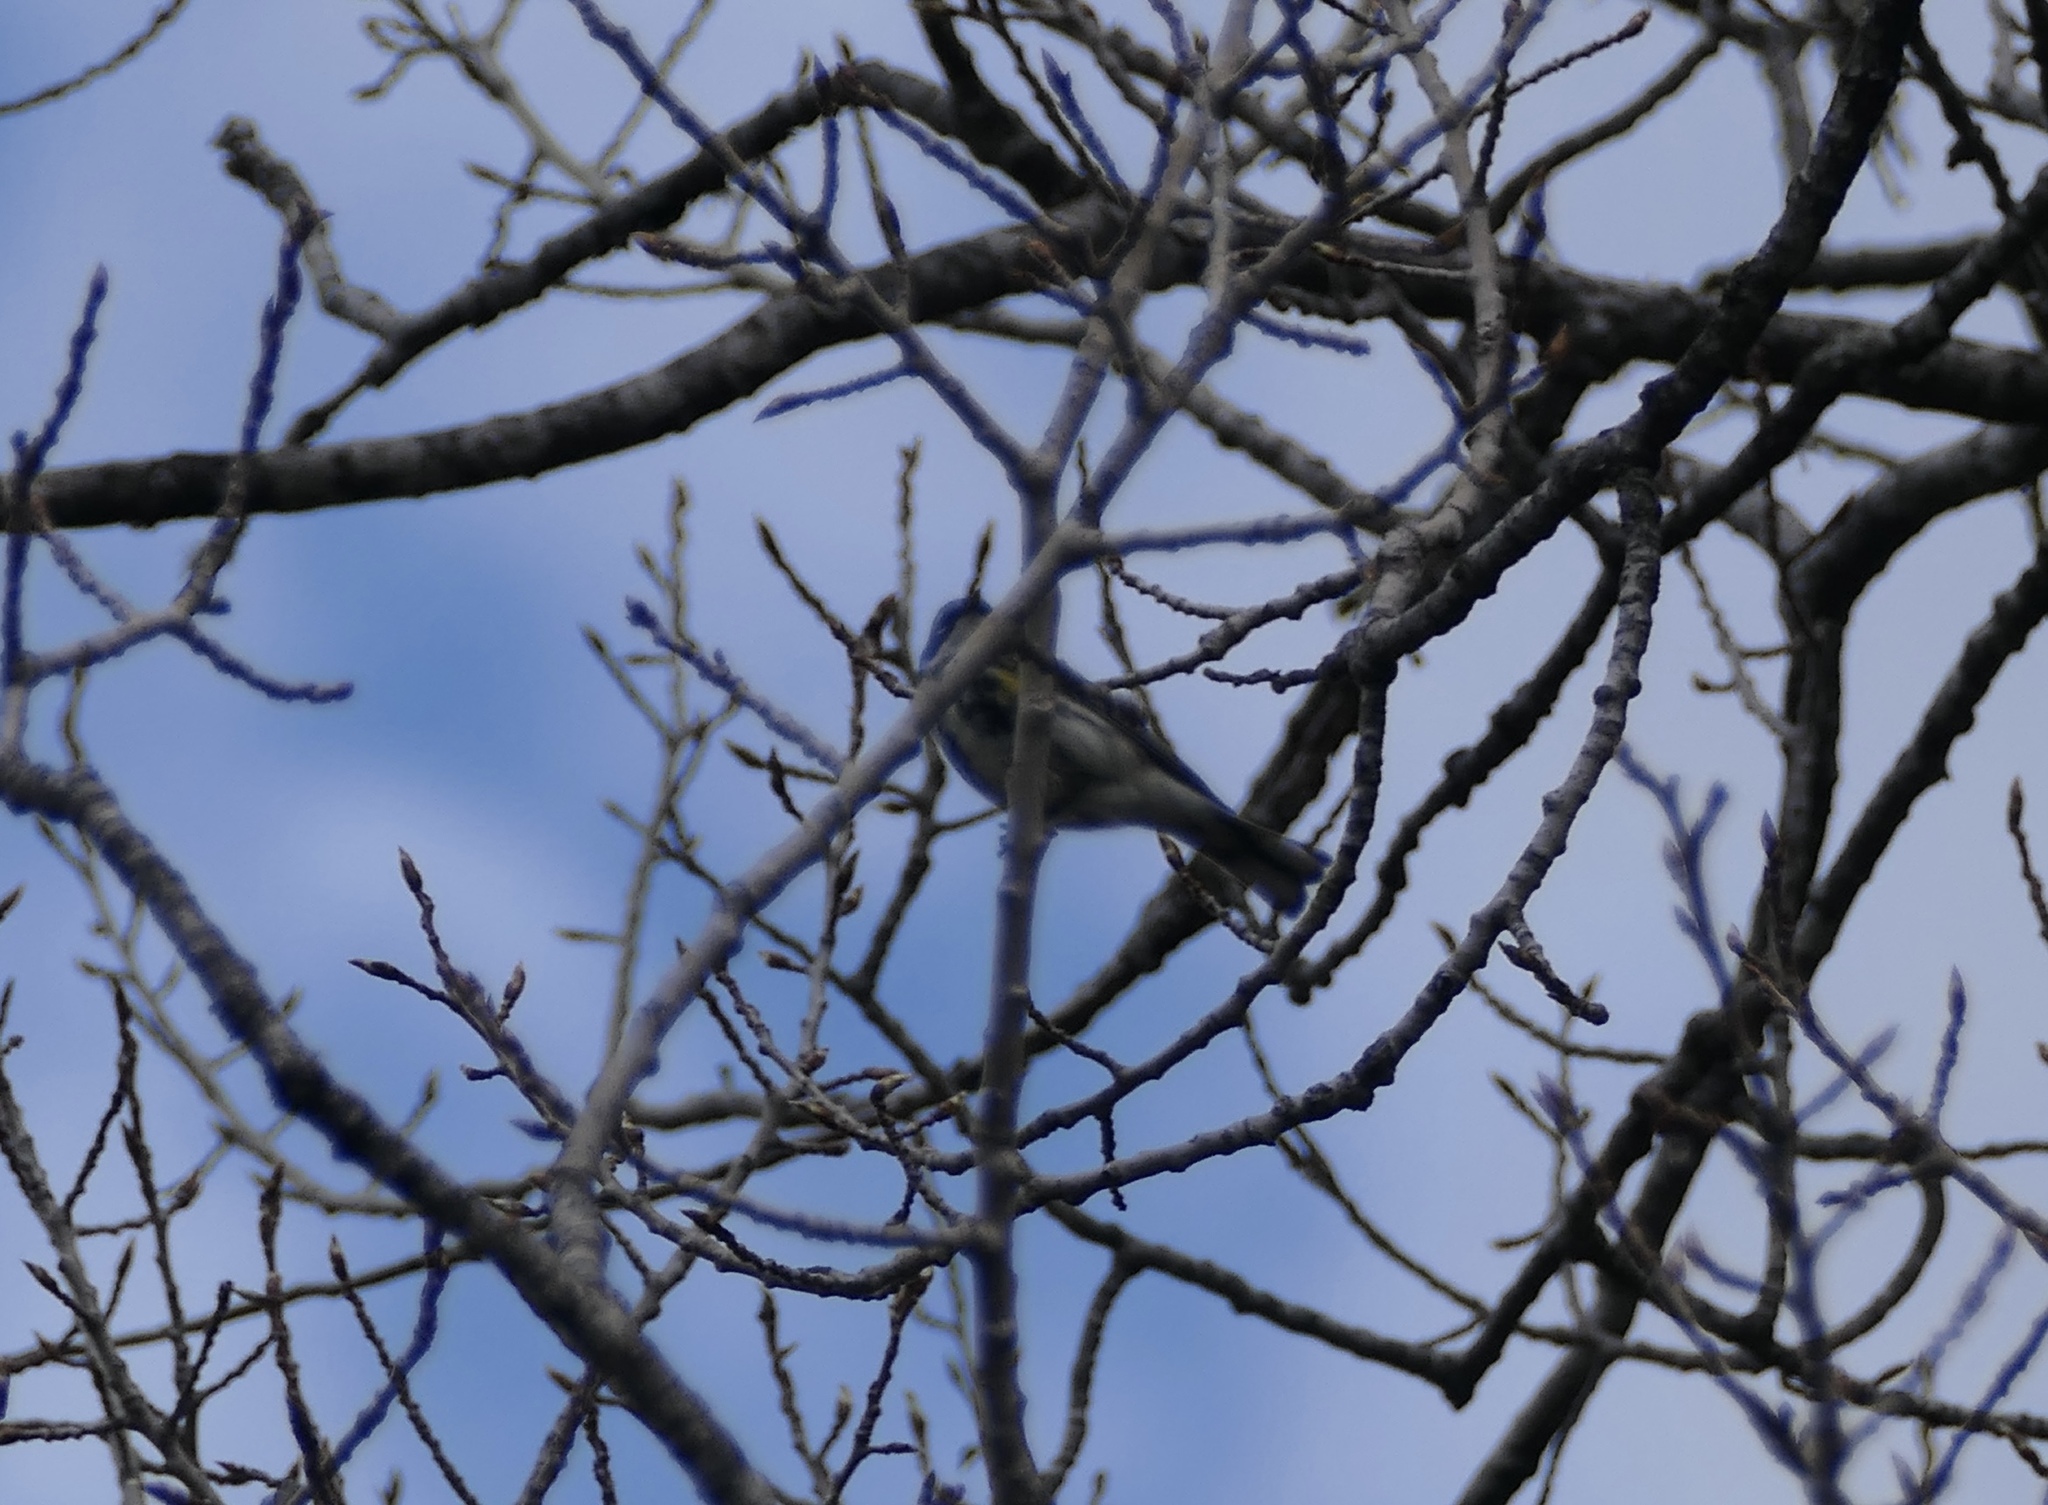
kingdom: Animalia
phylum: Chordata
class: Aves
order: Passeriformes
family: Parulidae
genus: Setophaga
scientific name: Setophaga coronata
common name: Myrtle warbler
